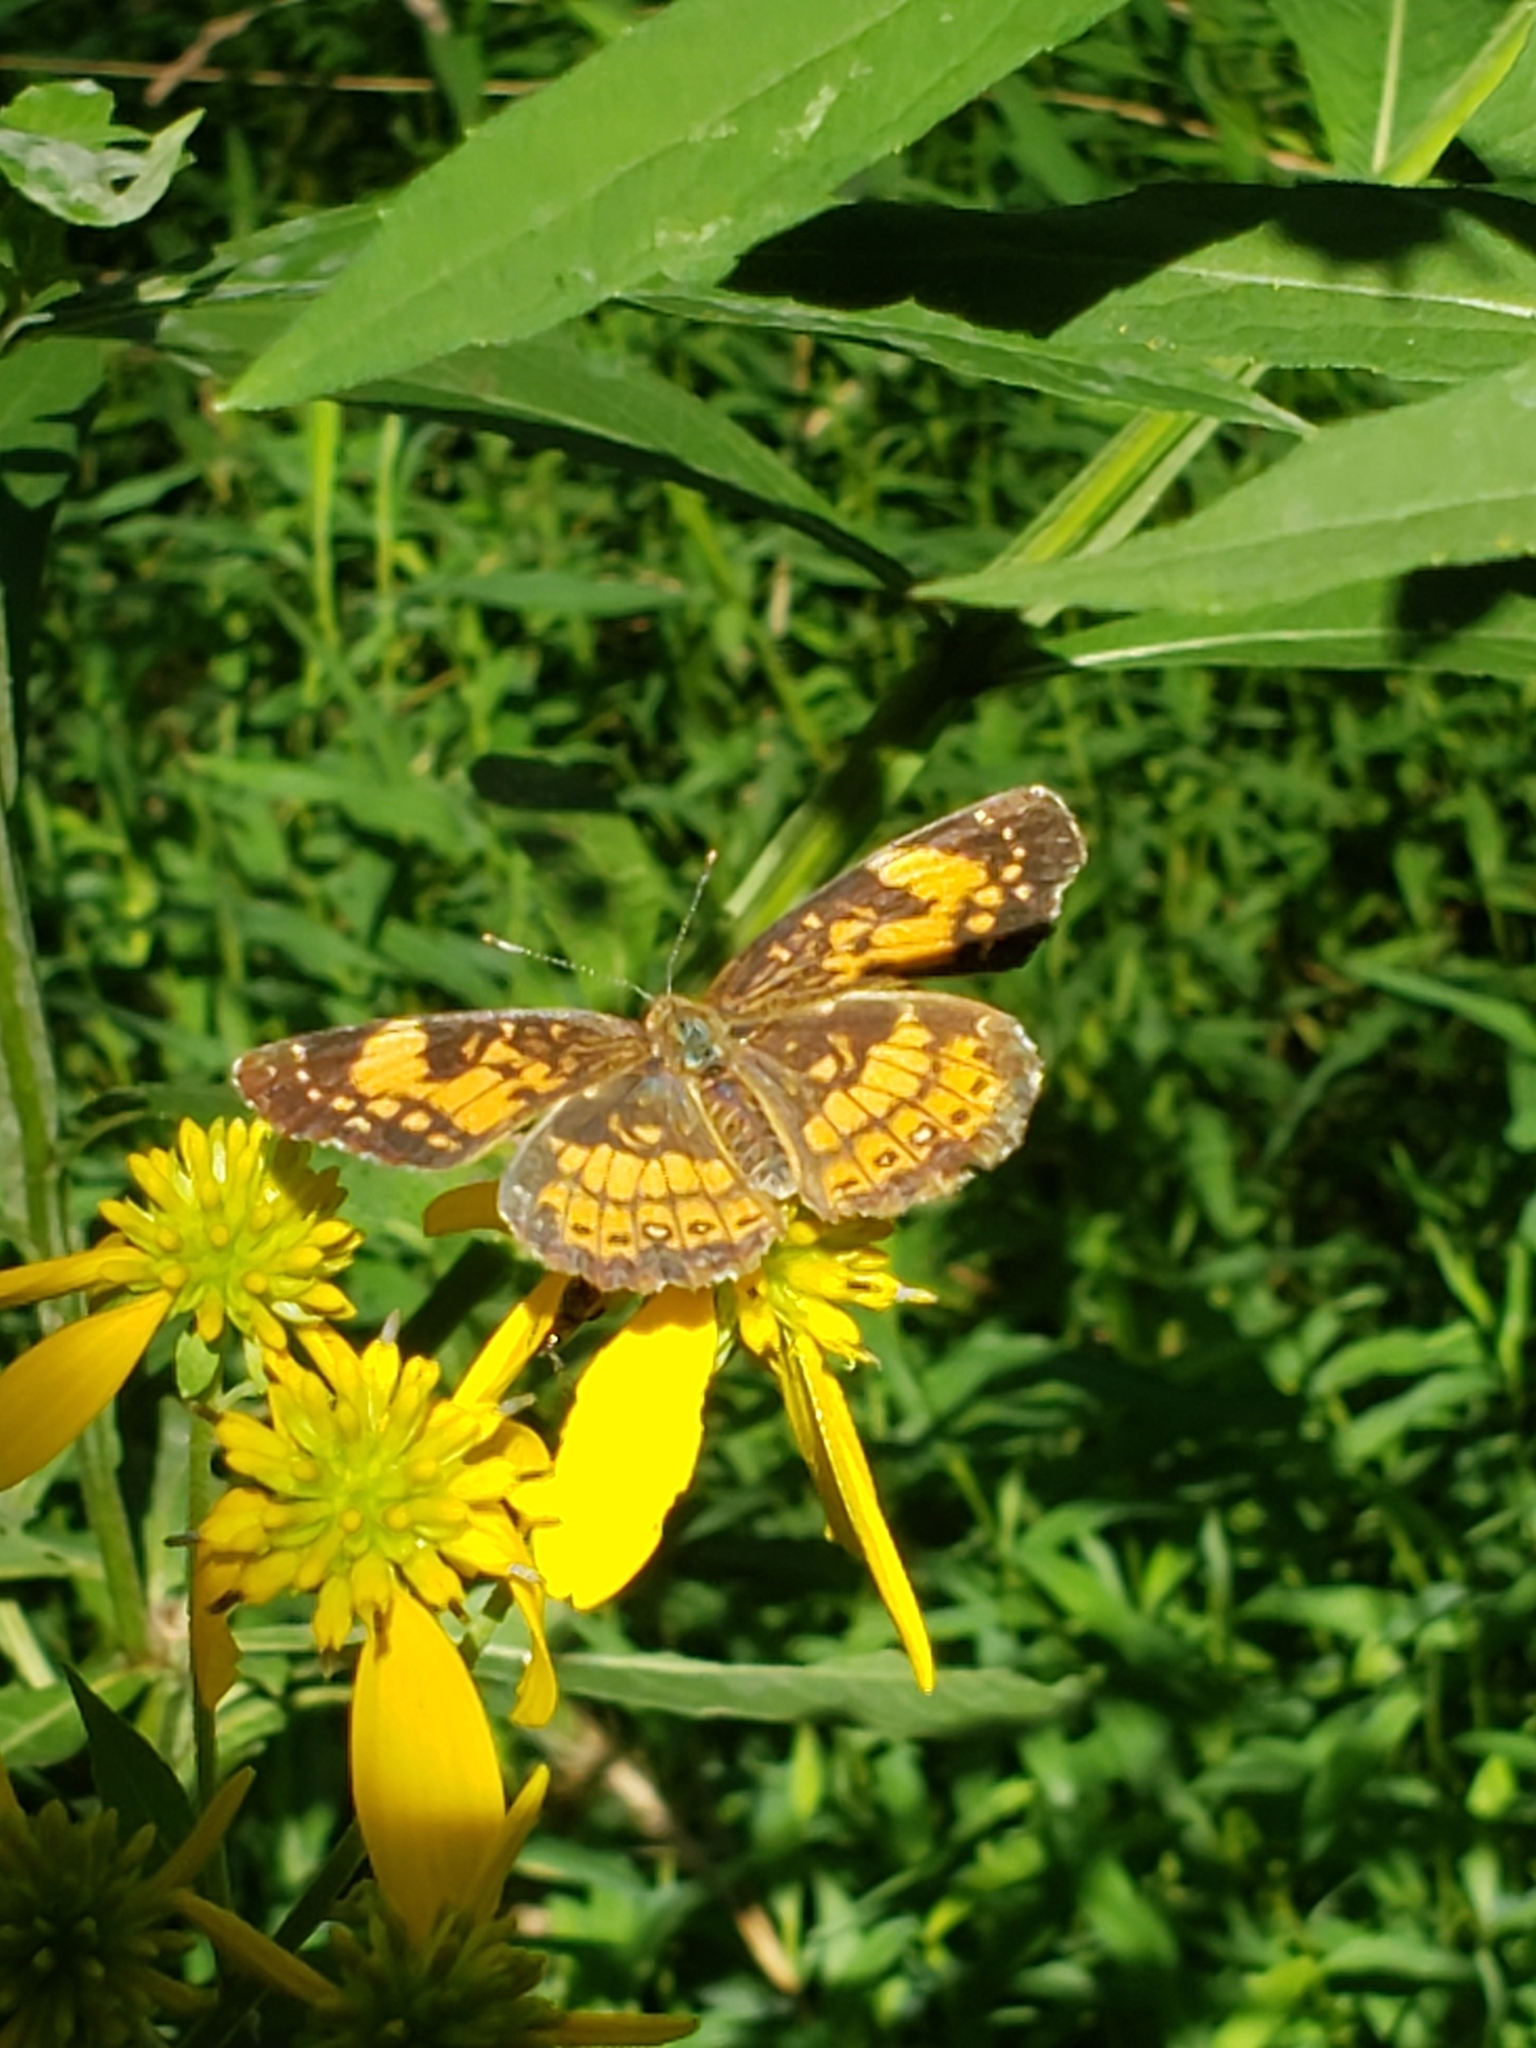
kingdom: Animalia
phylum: Arthropoda
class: Insecta
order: Lepidoptera
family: Nymphalidae
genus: Chlosyne
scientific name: Chlosyne nycteis
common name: Silvery checkerspot
